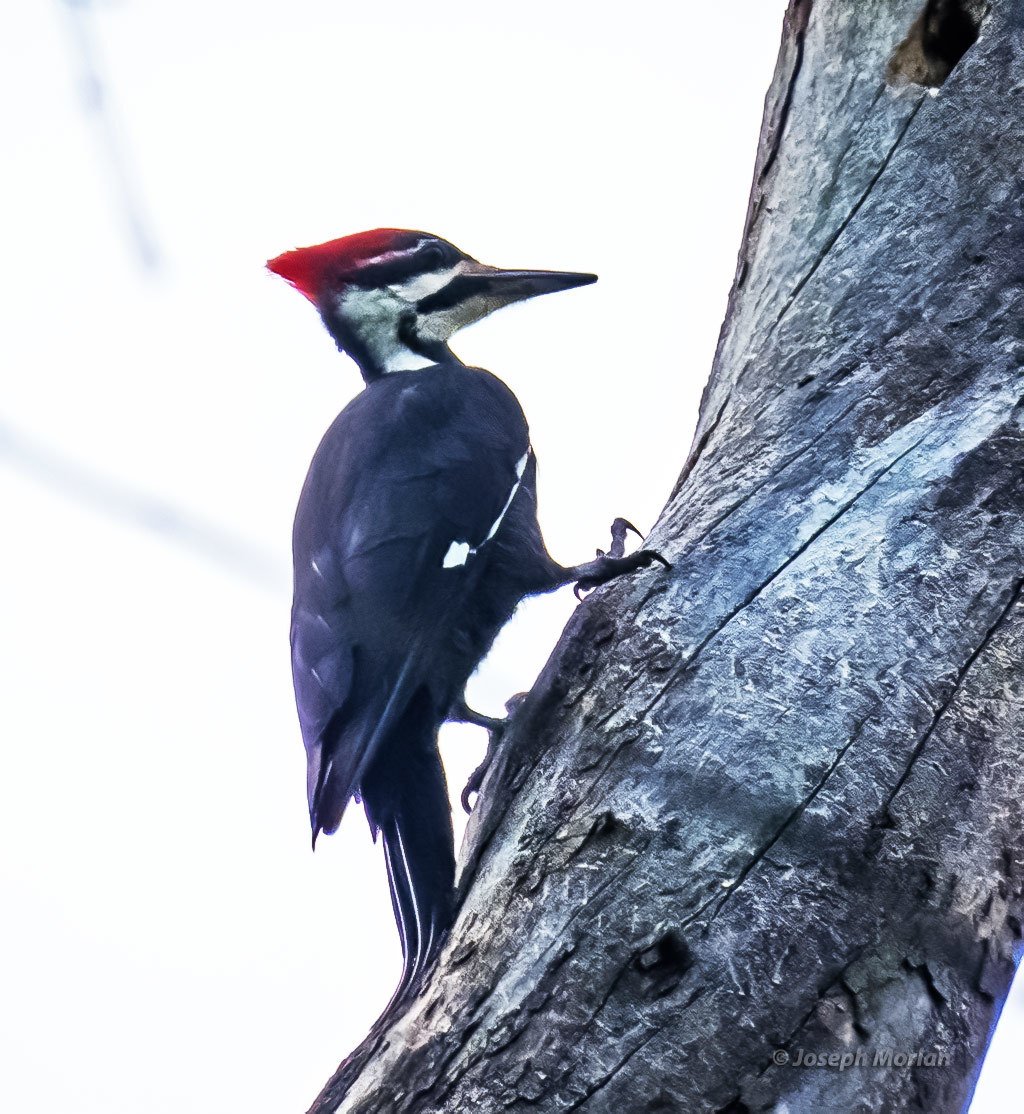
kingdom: Animalia
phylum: Chordata
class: Aves
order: Piciformes
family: Picidae
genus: Dryocopus
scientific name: Dryocopus pileatus
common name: Pileated woodpecker
